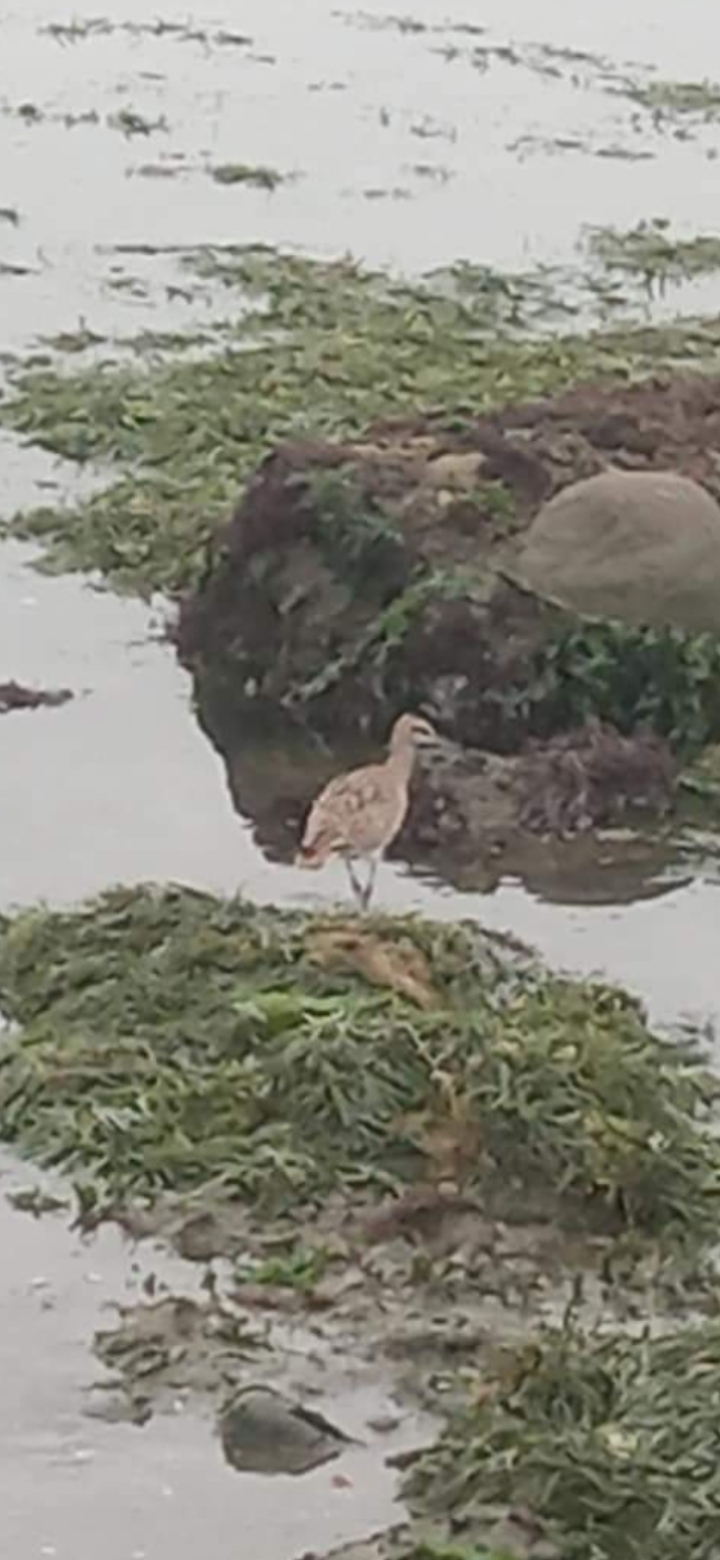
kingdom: Animalia
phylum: Chordata
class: Aves
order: Charadriiformes
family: Scolopacidae
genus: Numenius
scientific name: Numenius phaeopus
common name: Whimbrel
